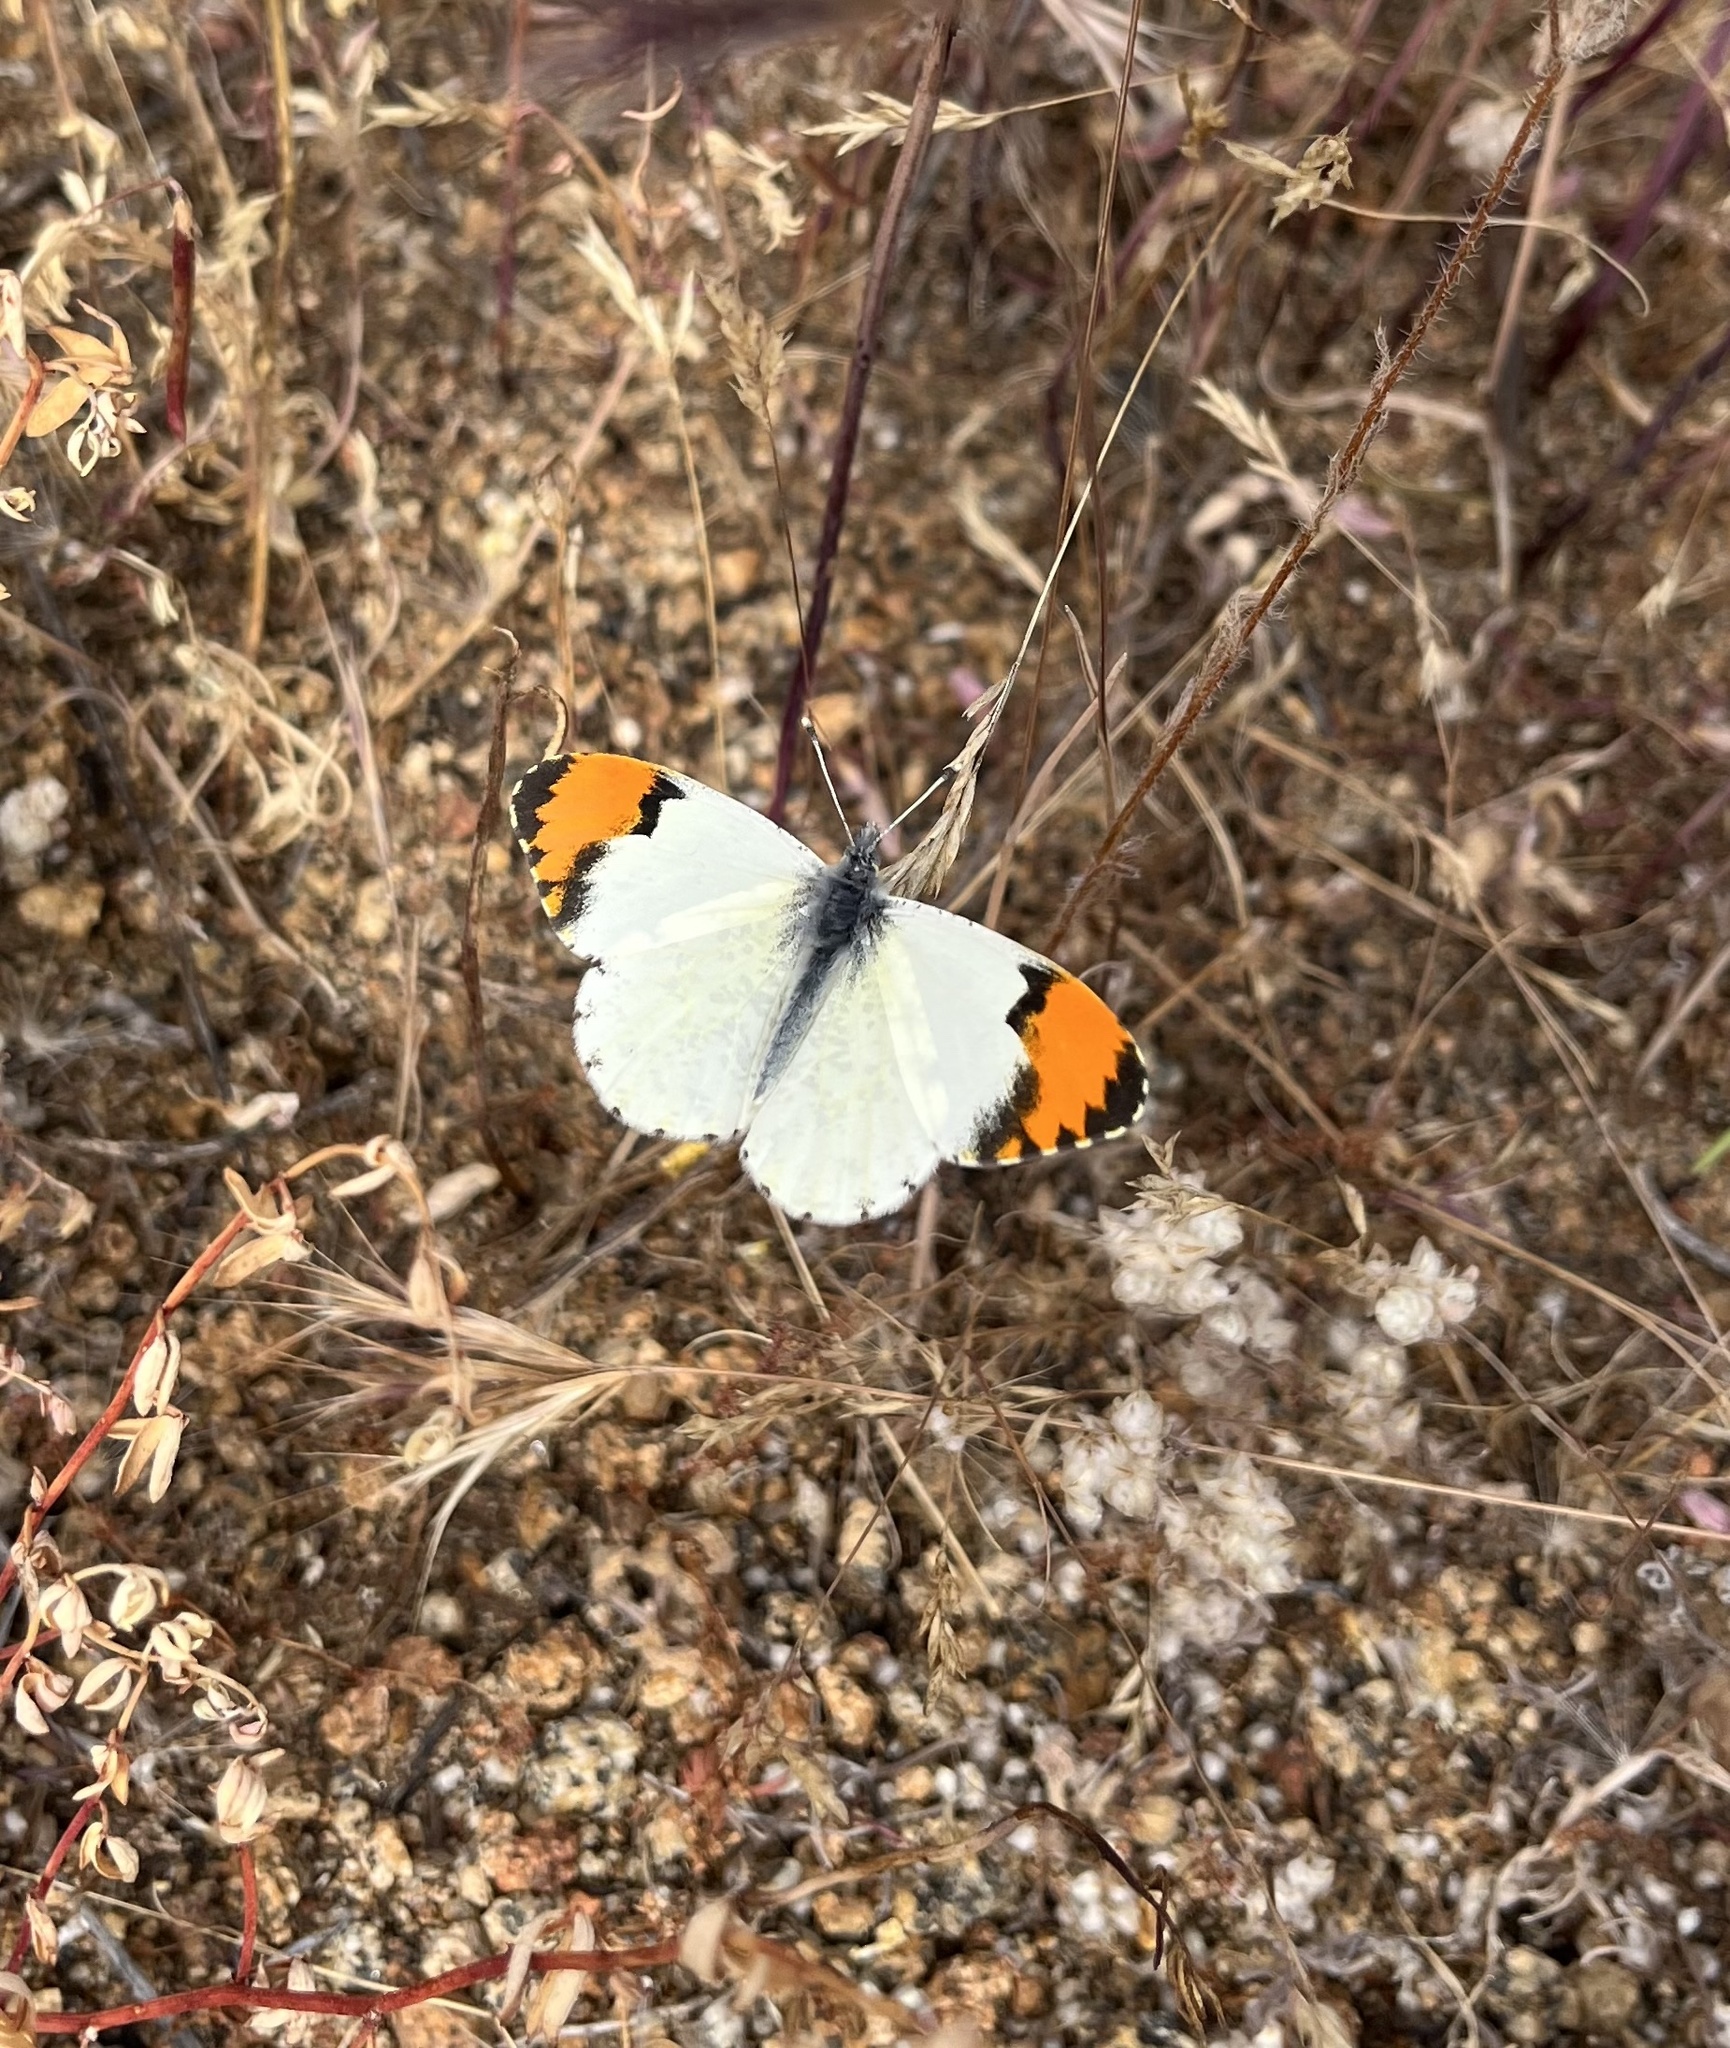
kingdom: Animalia
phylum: Arthropoda
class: Insecta
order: Lepidoptera
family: Pieridae
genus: Anthocharis
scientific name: Anthocharis sara
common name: Sara's orangetip
